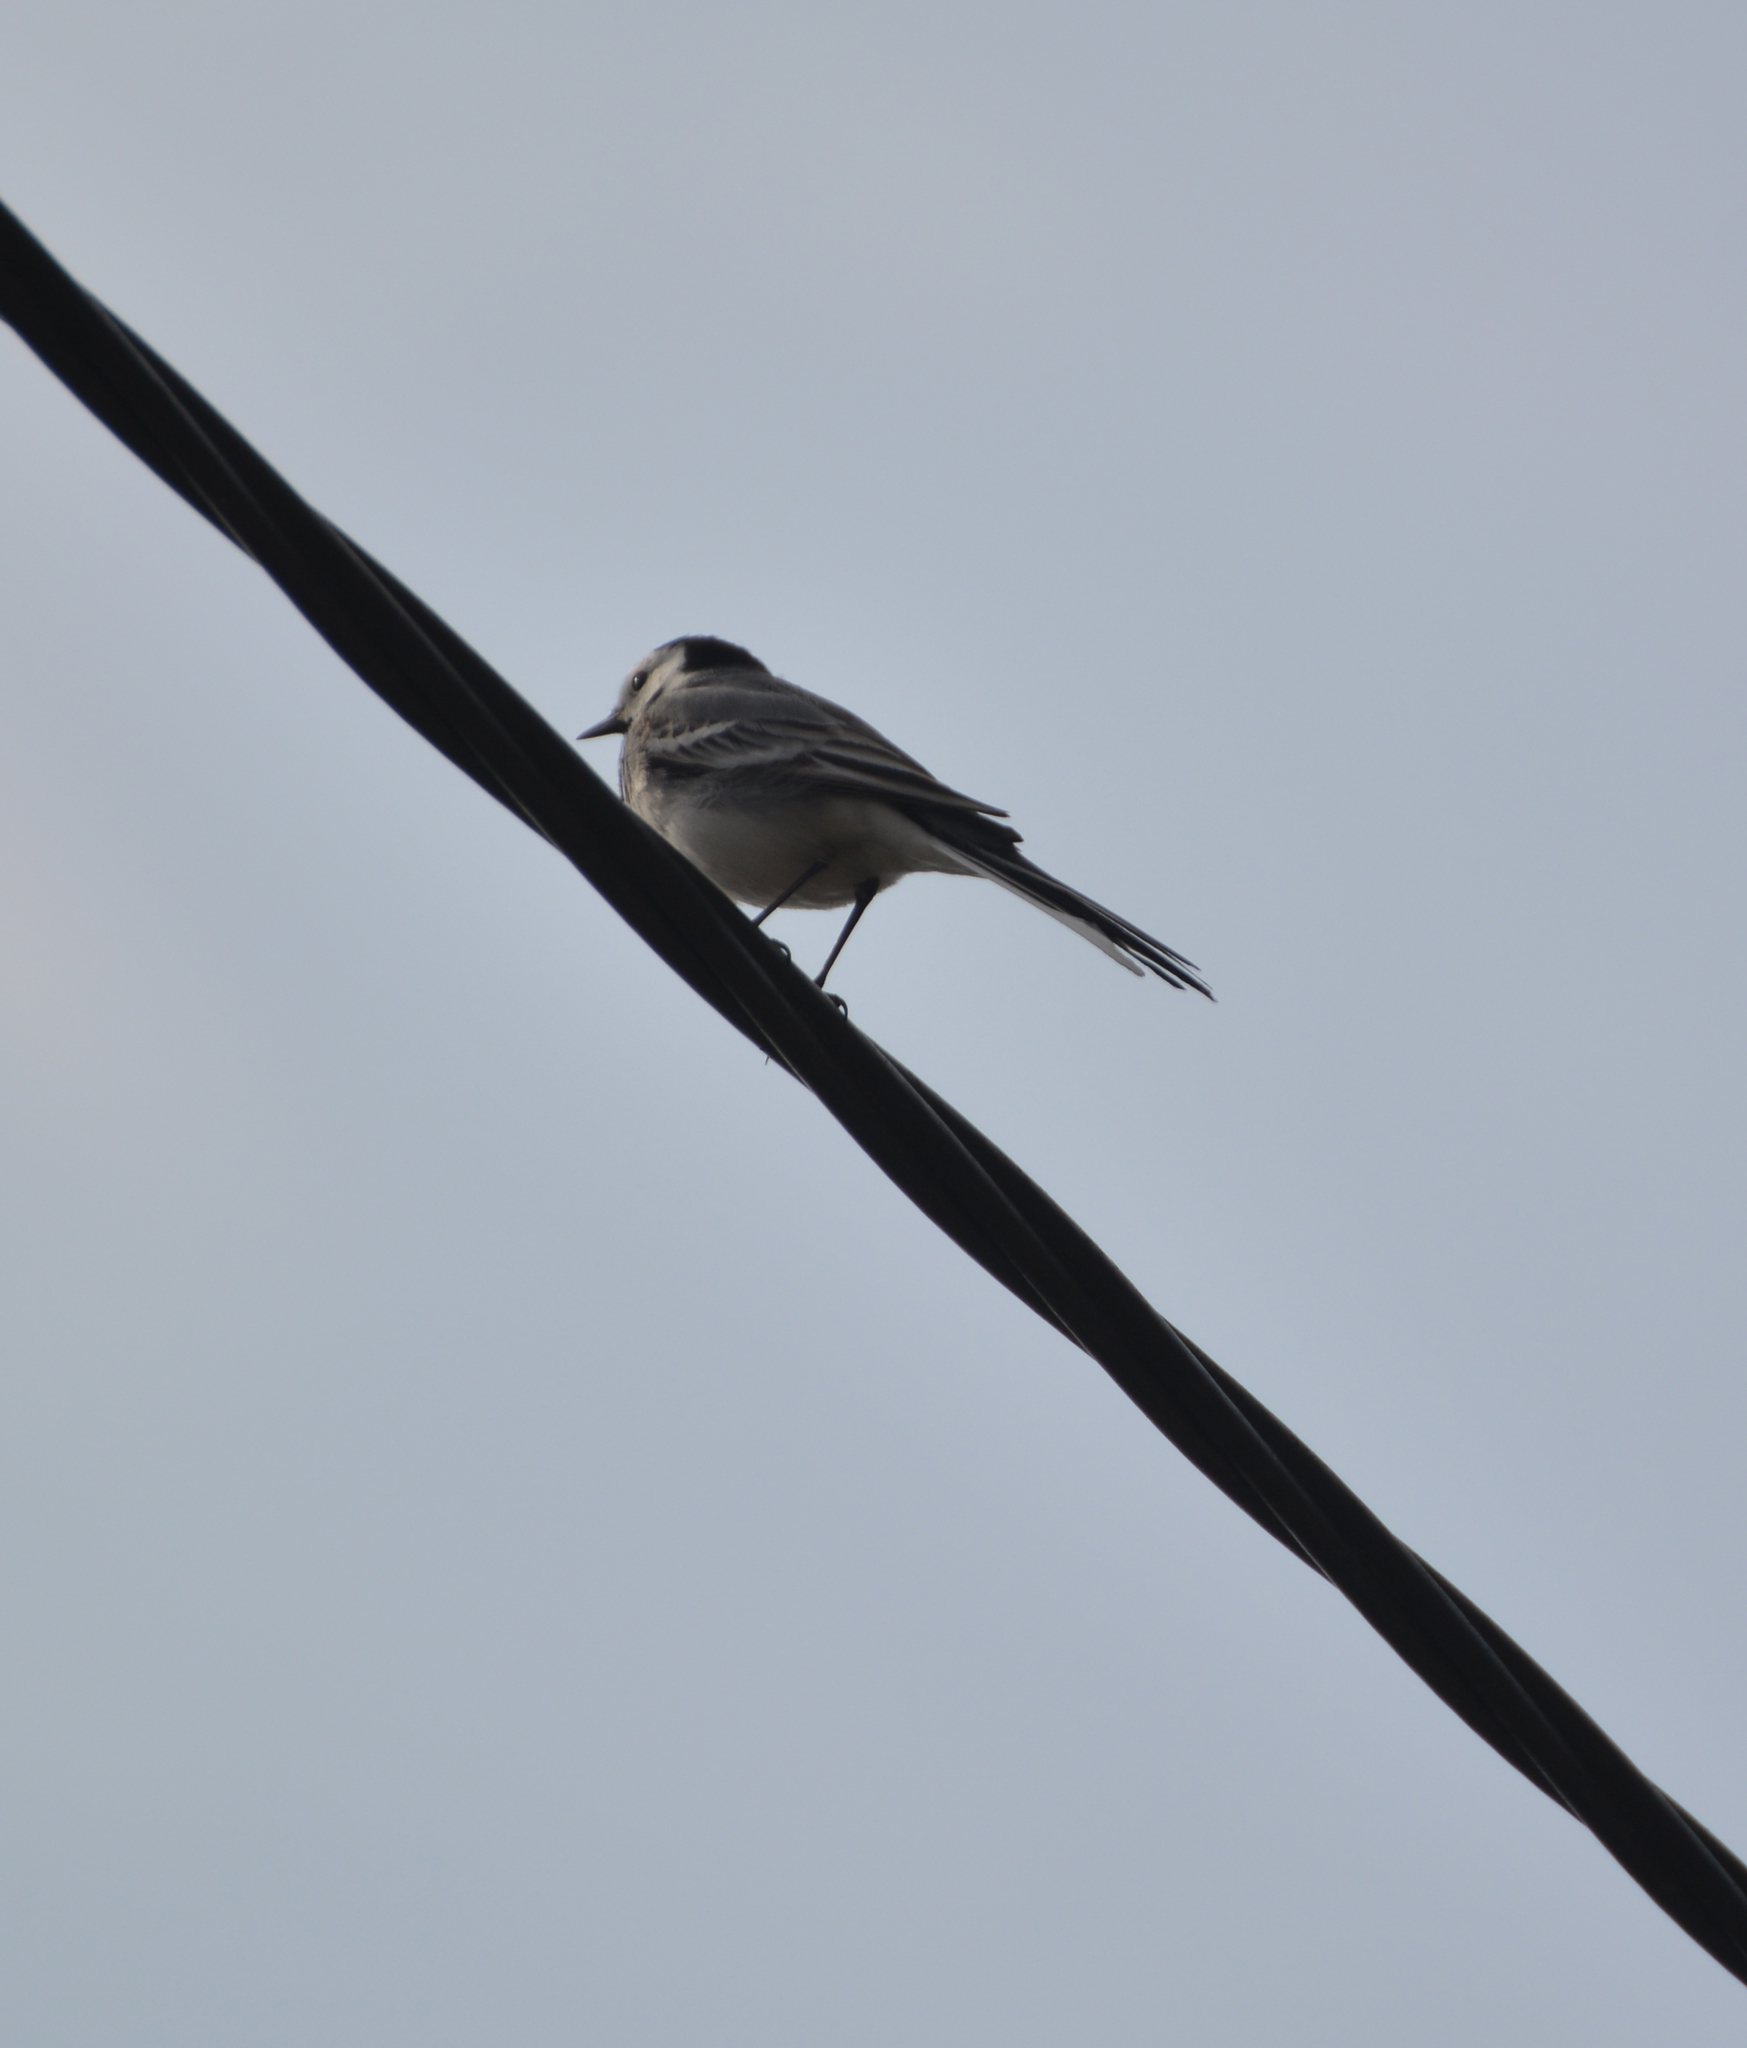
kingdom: Animalia
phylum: Chordata
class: Aves
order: Passeriformes
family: Motacillidae
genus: Motacilla
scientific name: Motacilla alba
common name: White wagtail
